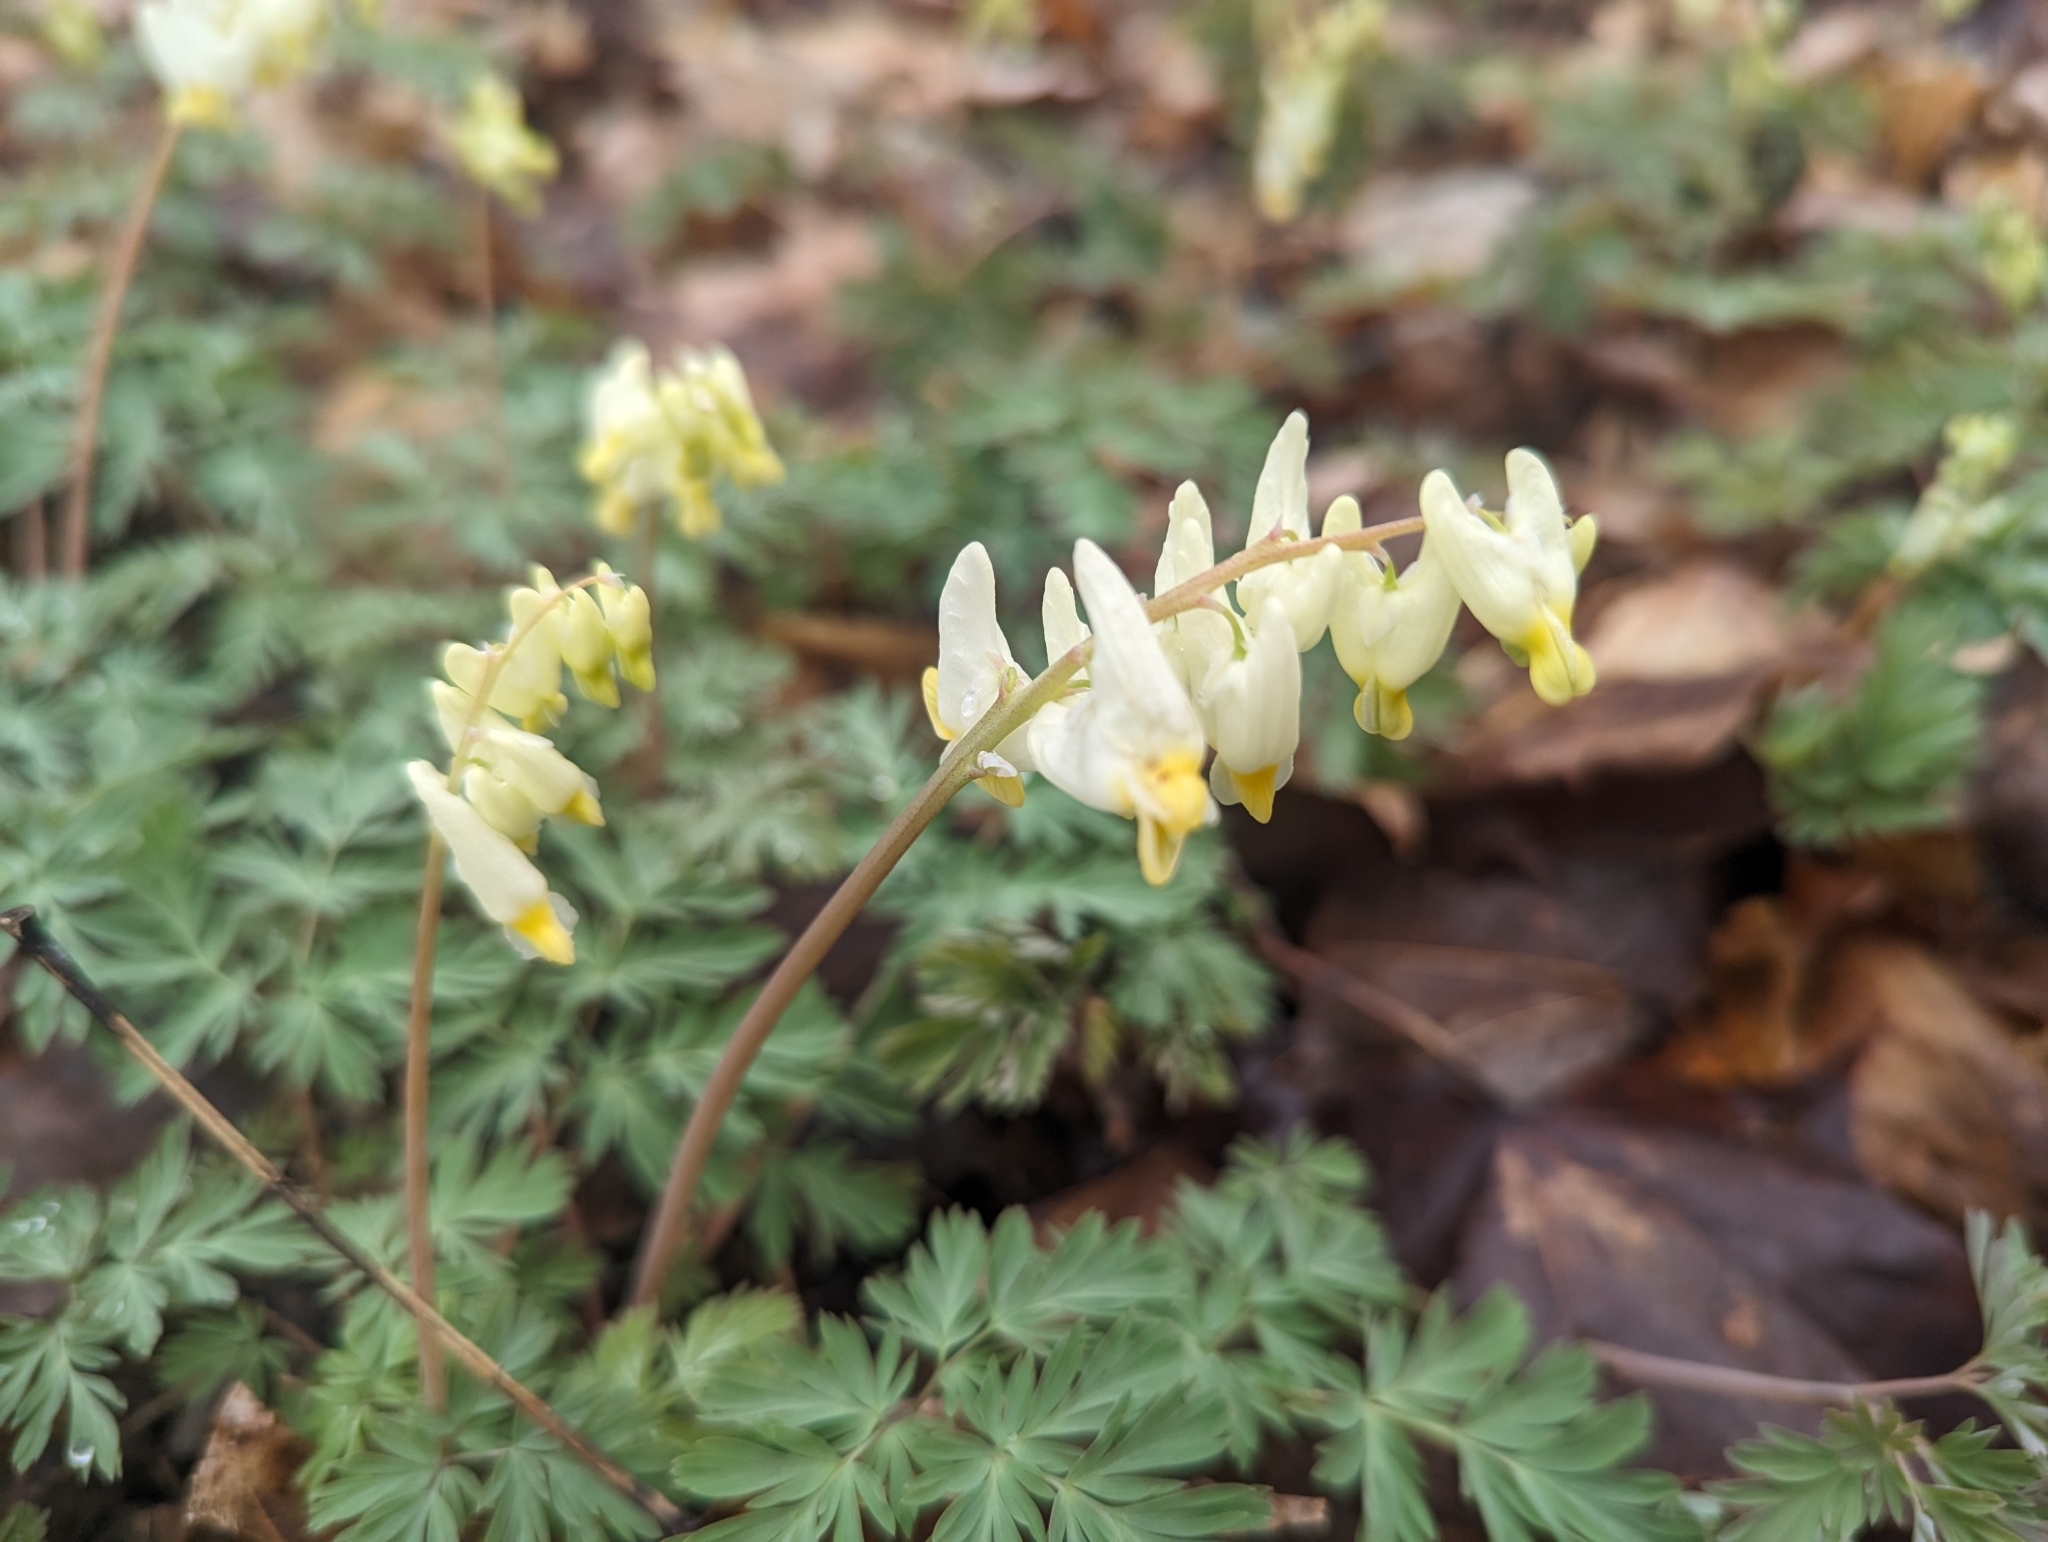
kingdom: Plantae
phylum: Tracheophyta
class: Magnoliopsida
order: Ranunculales
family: Papaveraceae
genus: Dicentra
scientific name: Dicentra cucullaria
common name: Dutchman's breeches
